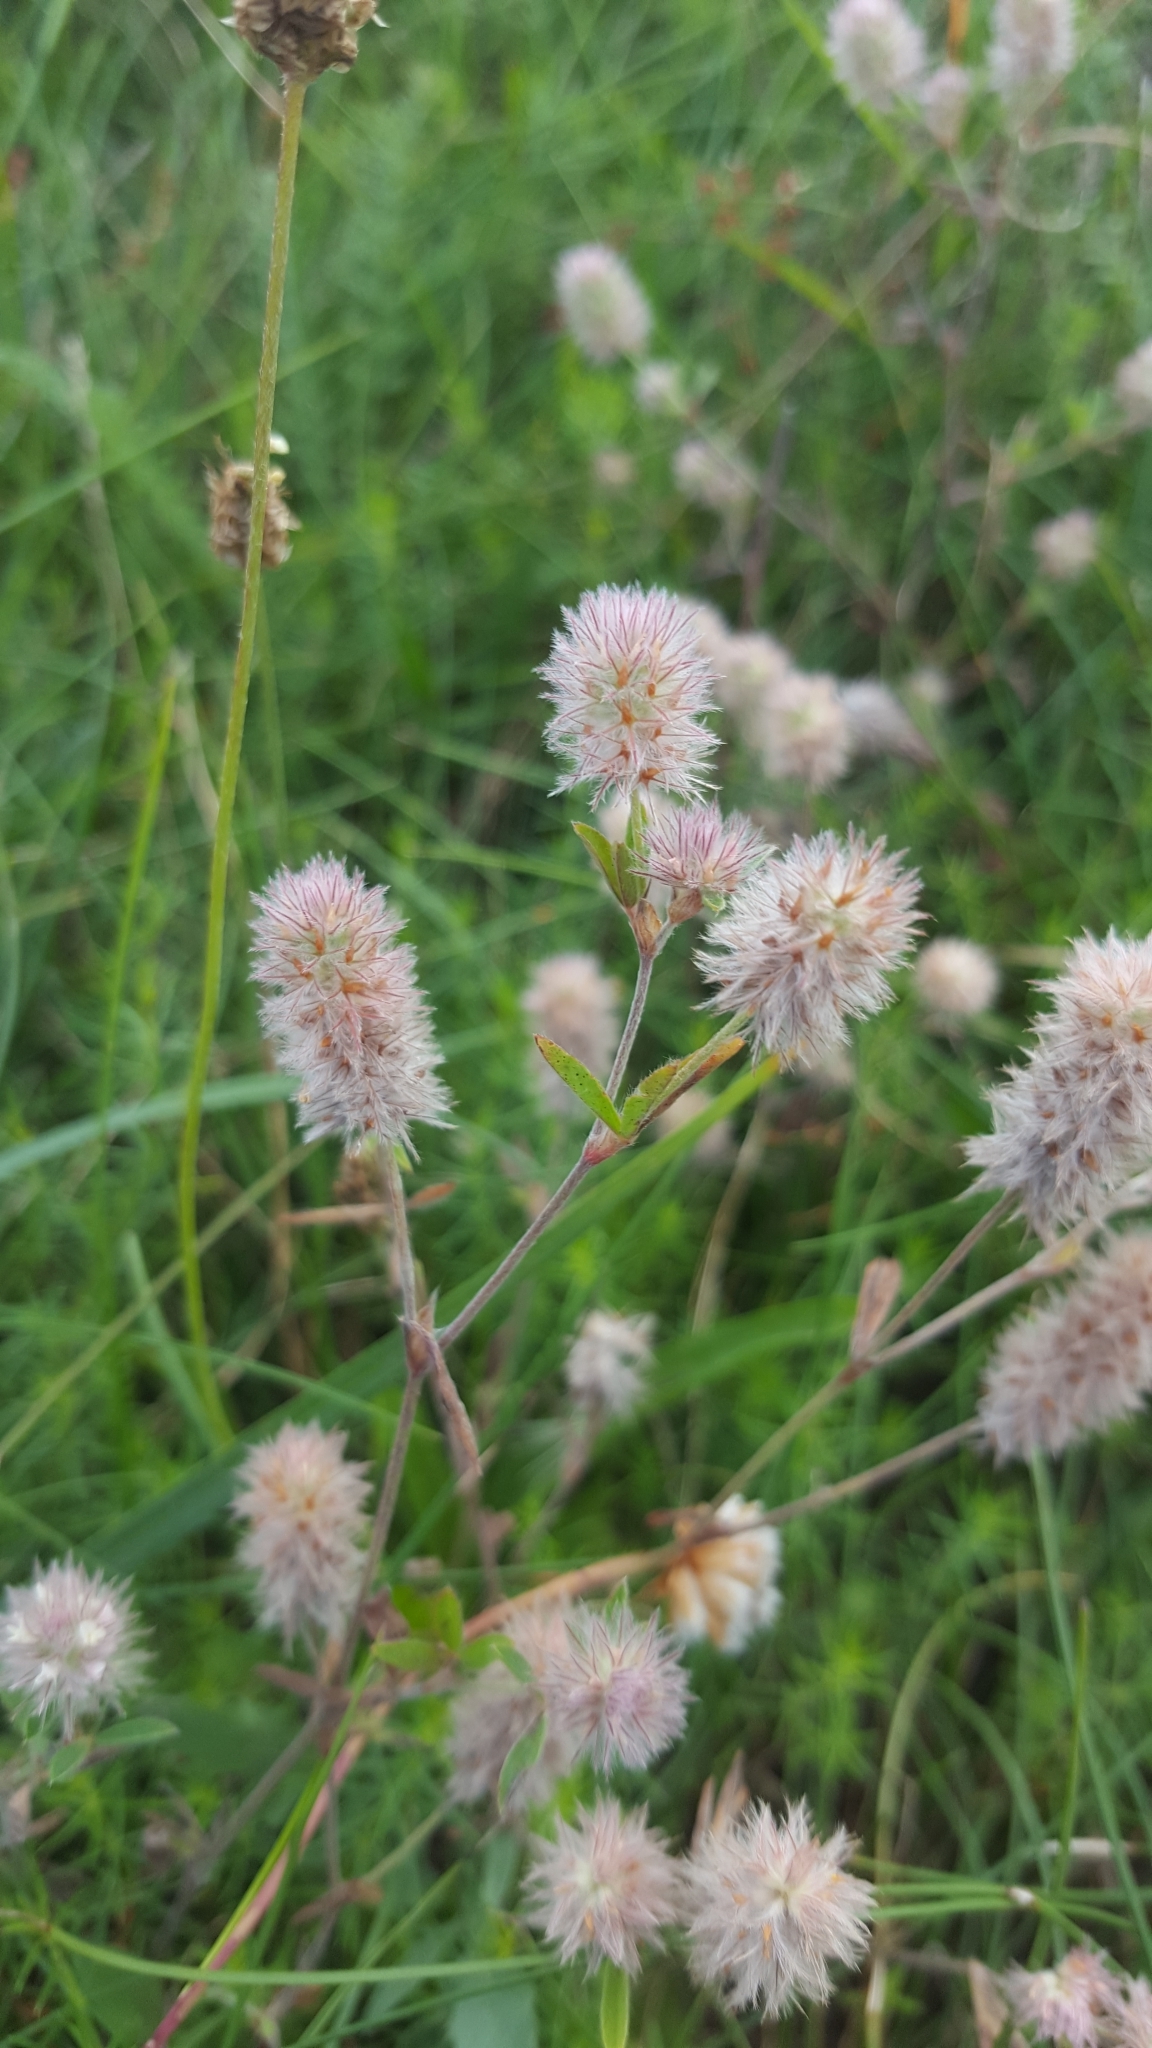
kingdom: Plantae
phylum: Tracheophyta
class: Magnoliopsida
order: Fabales
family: Fabaceae
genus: Trifolium
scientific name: Trifolium arvense
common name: Hare's-foot clover
